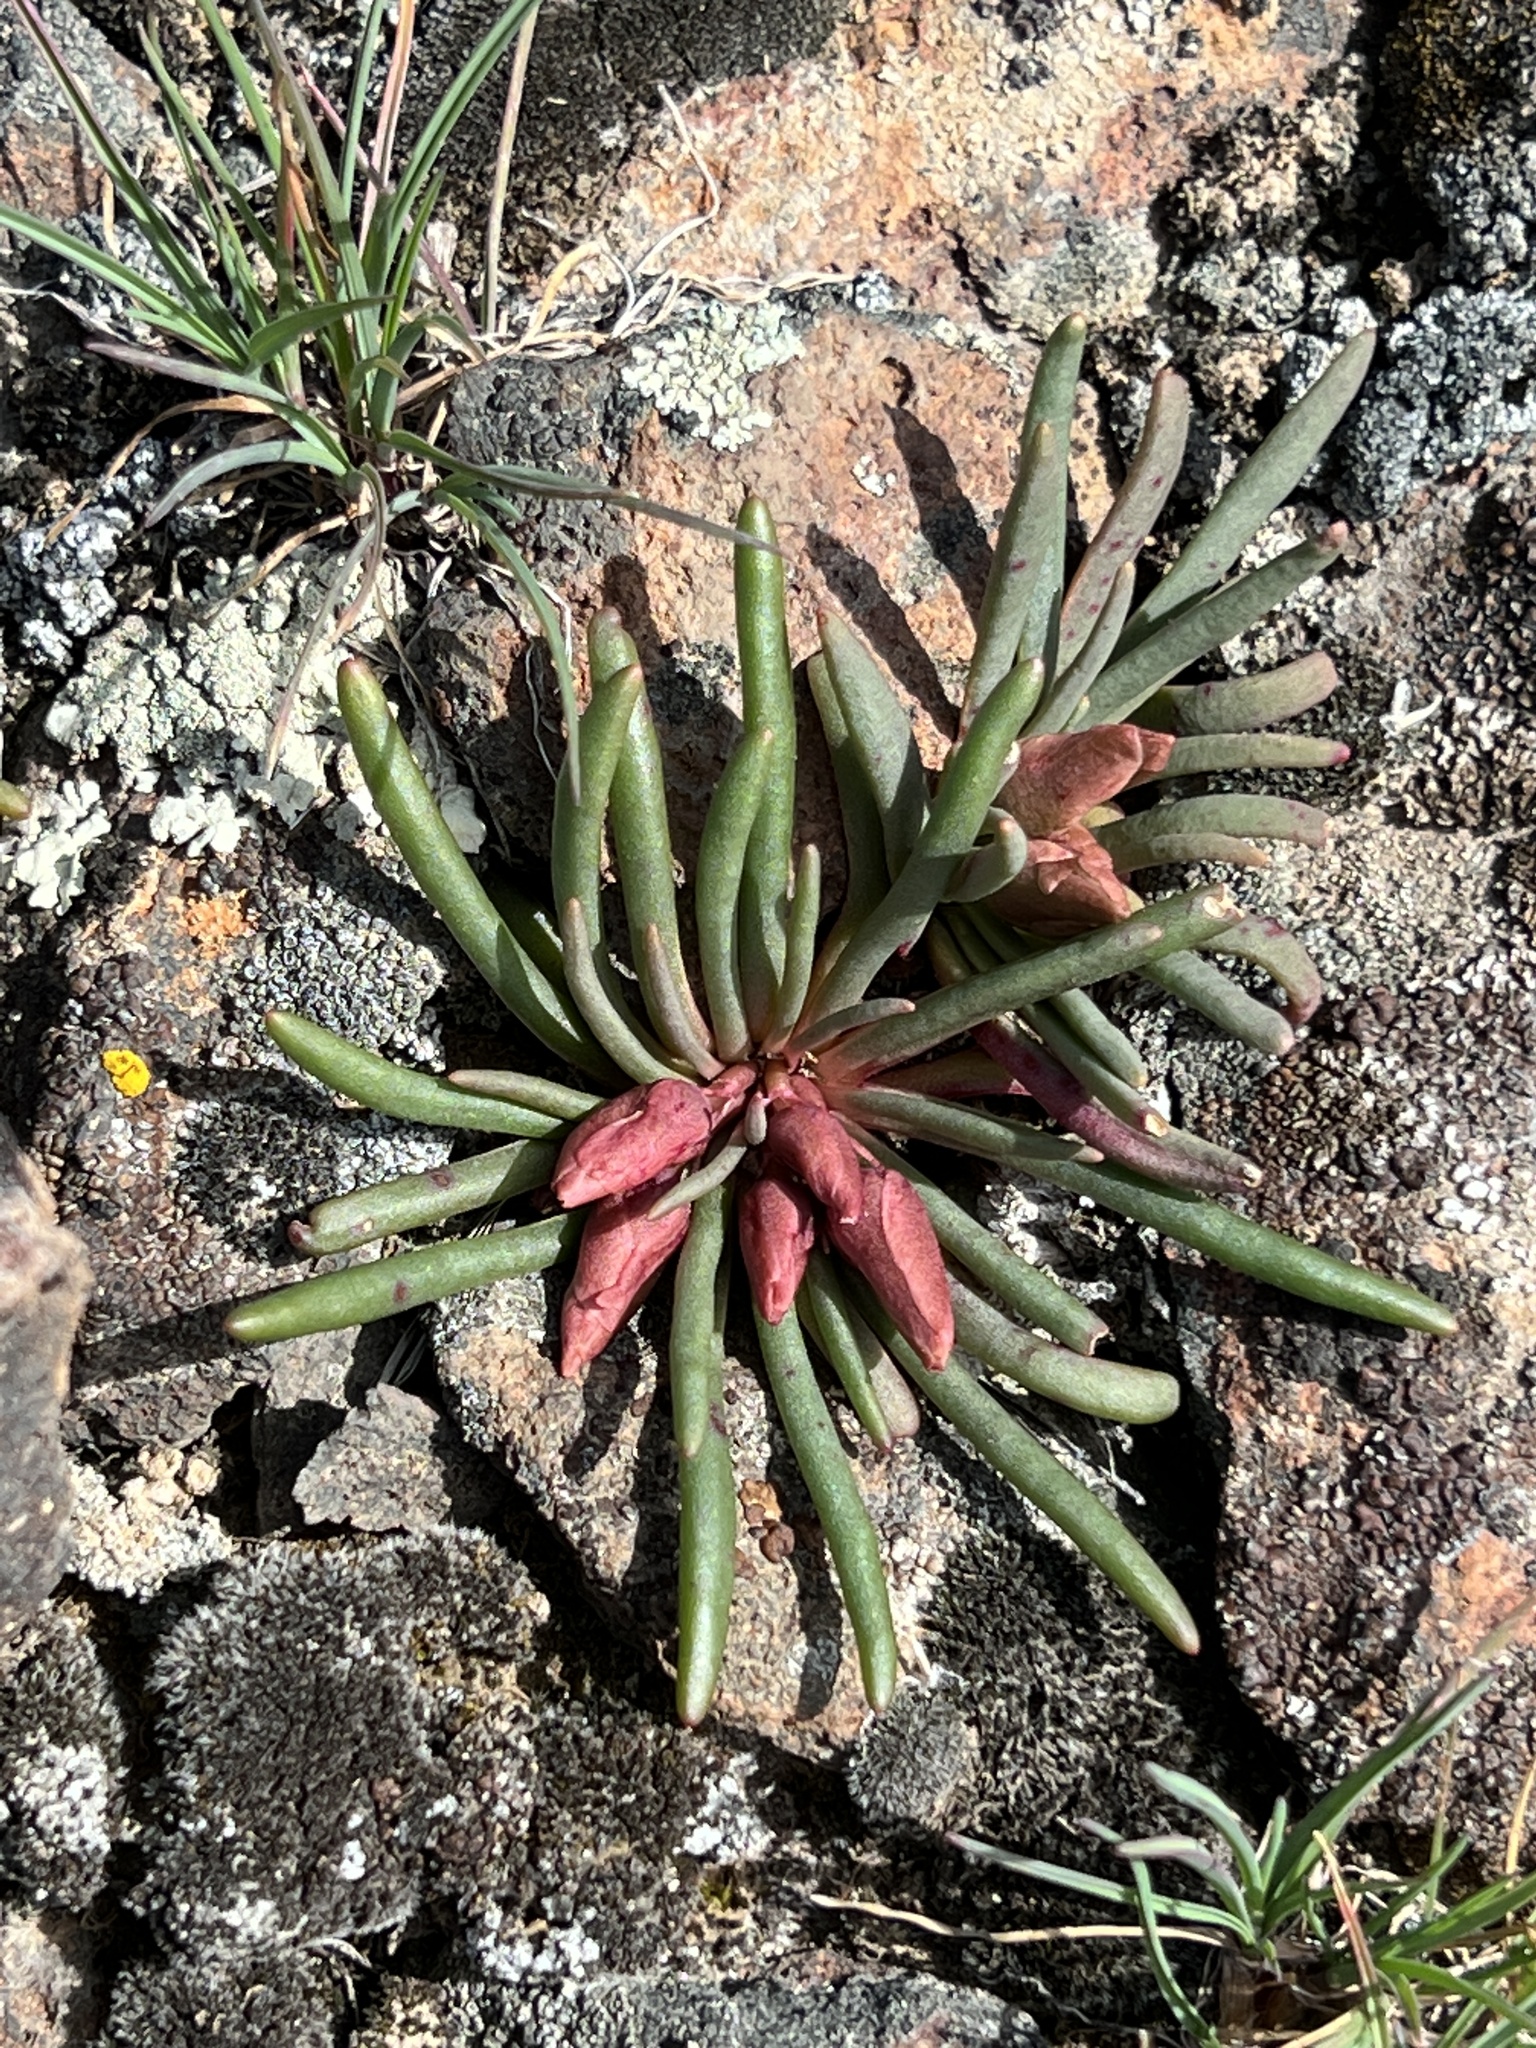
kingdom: Plantae
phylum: Tracheophyta
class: Magnoliopsida
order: Caryophyllales
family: Montiaceae
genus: Lewisia
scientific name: Lewisia rediviva
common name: Bitter-root
